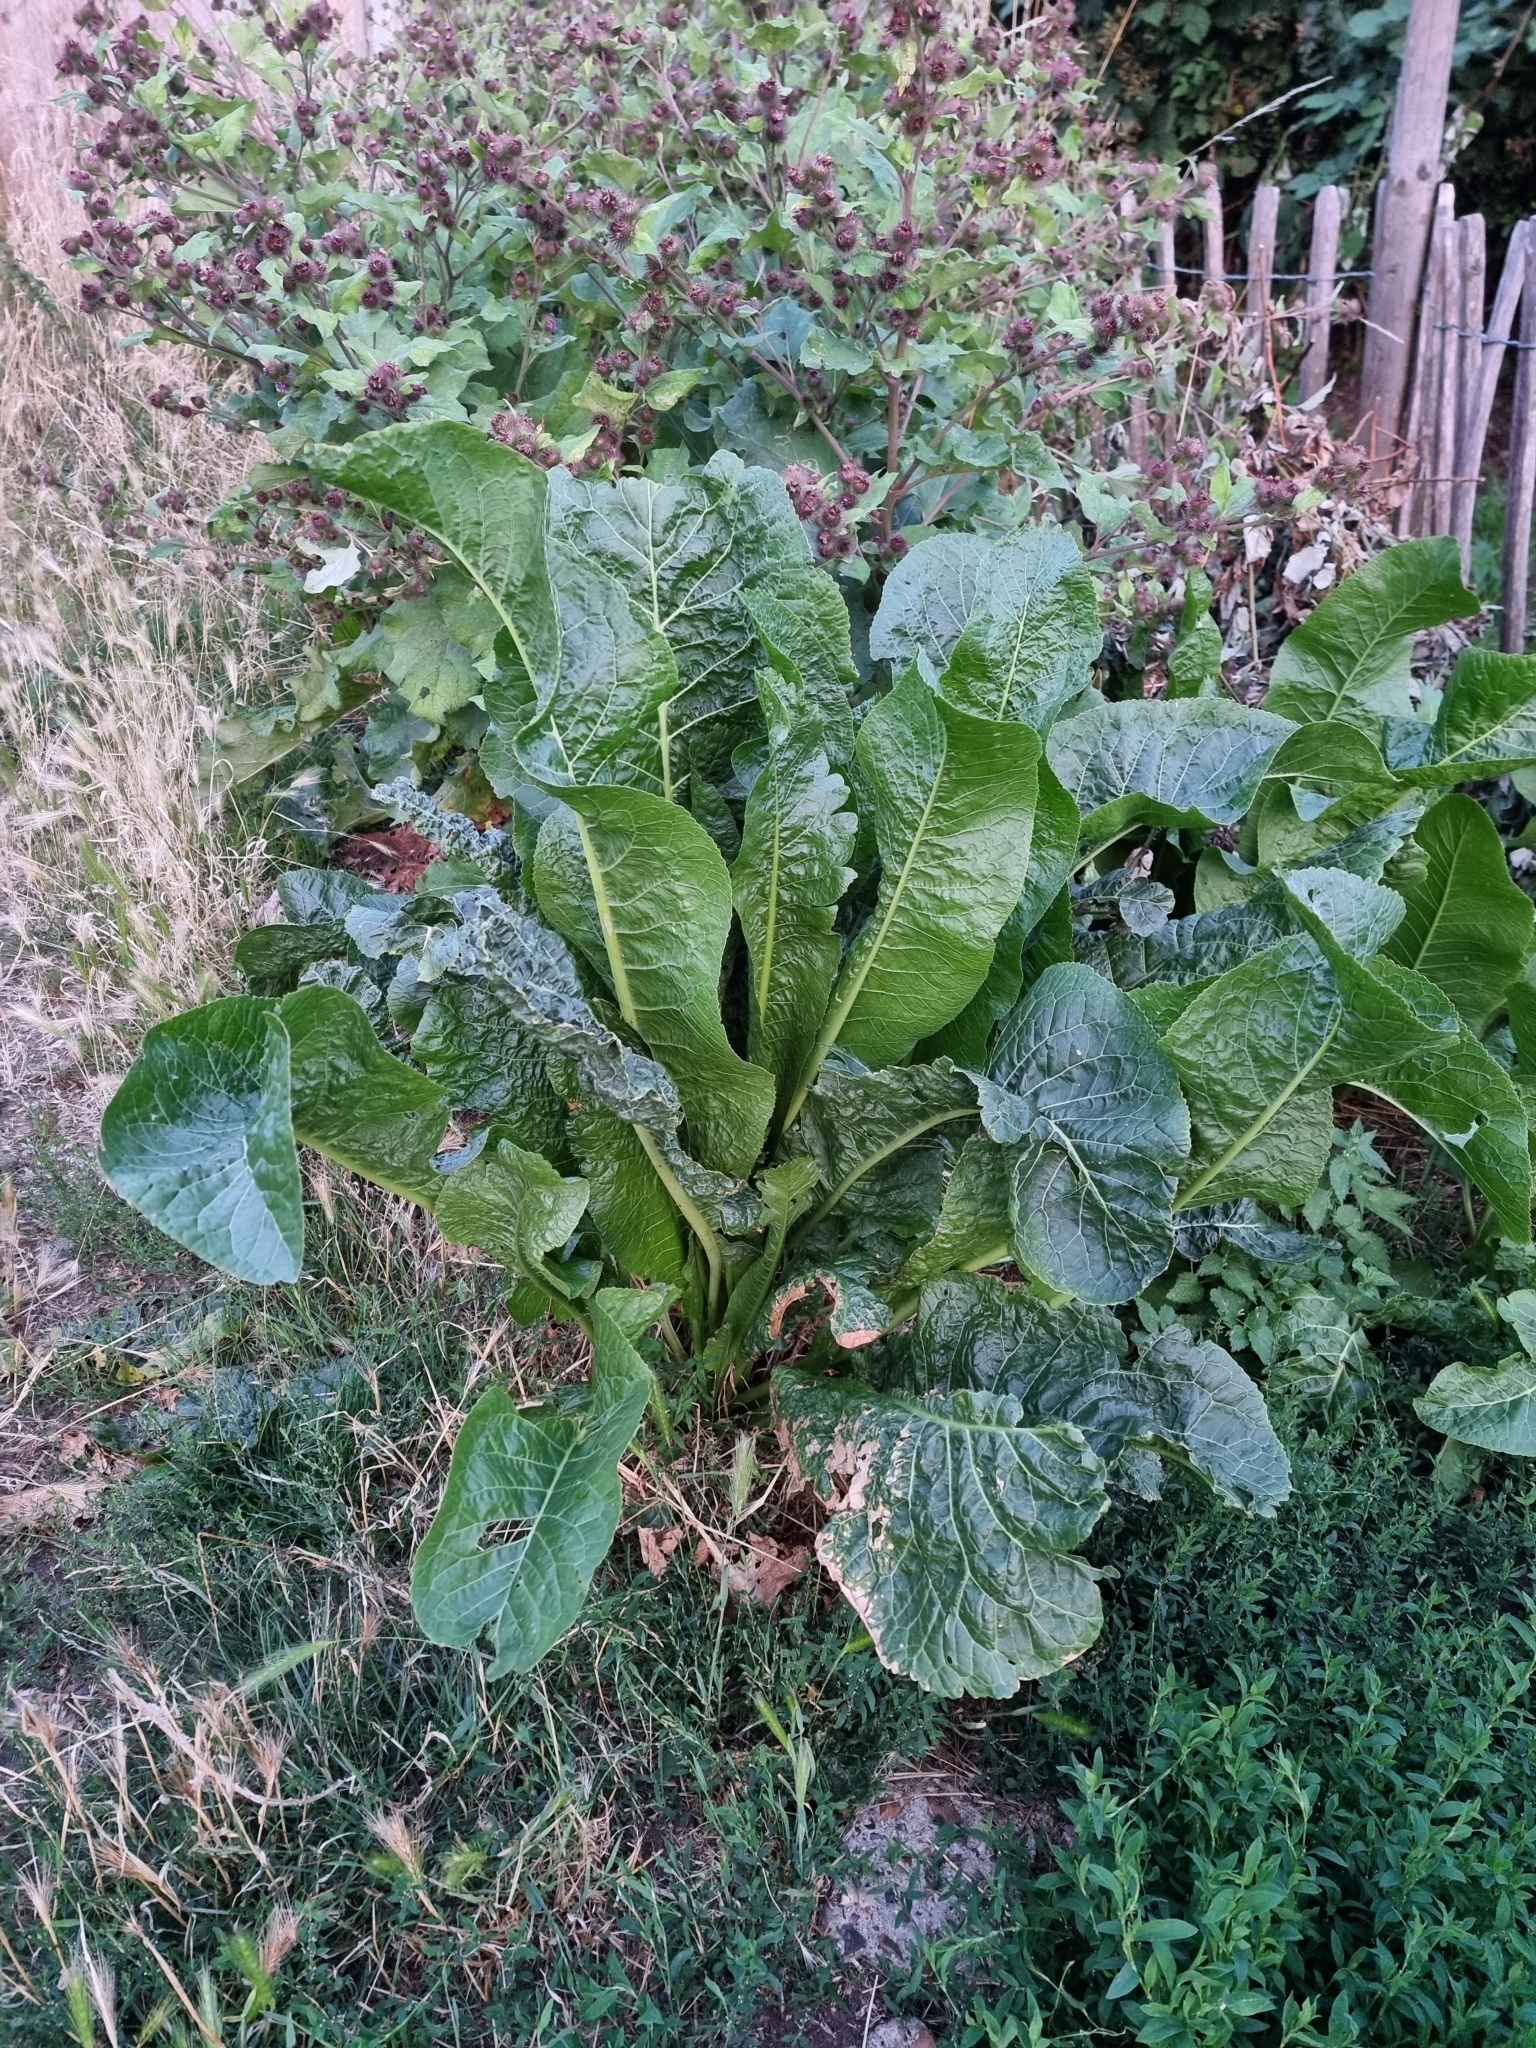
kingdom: Plantae
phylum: Tracheophyta
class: Magnoliopsida
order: Brassicales
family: Brassicaceae
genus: Armoracia
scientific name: Armoracia rusticana
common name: Horseradish
